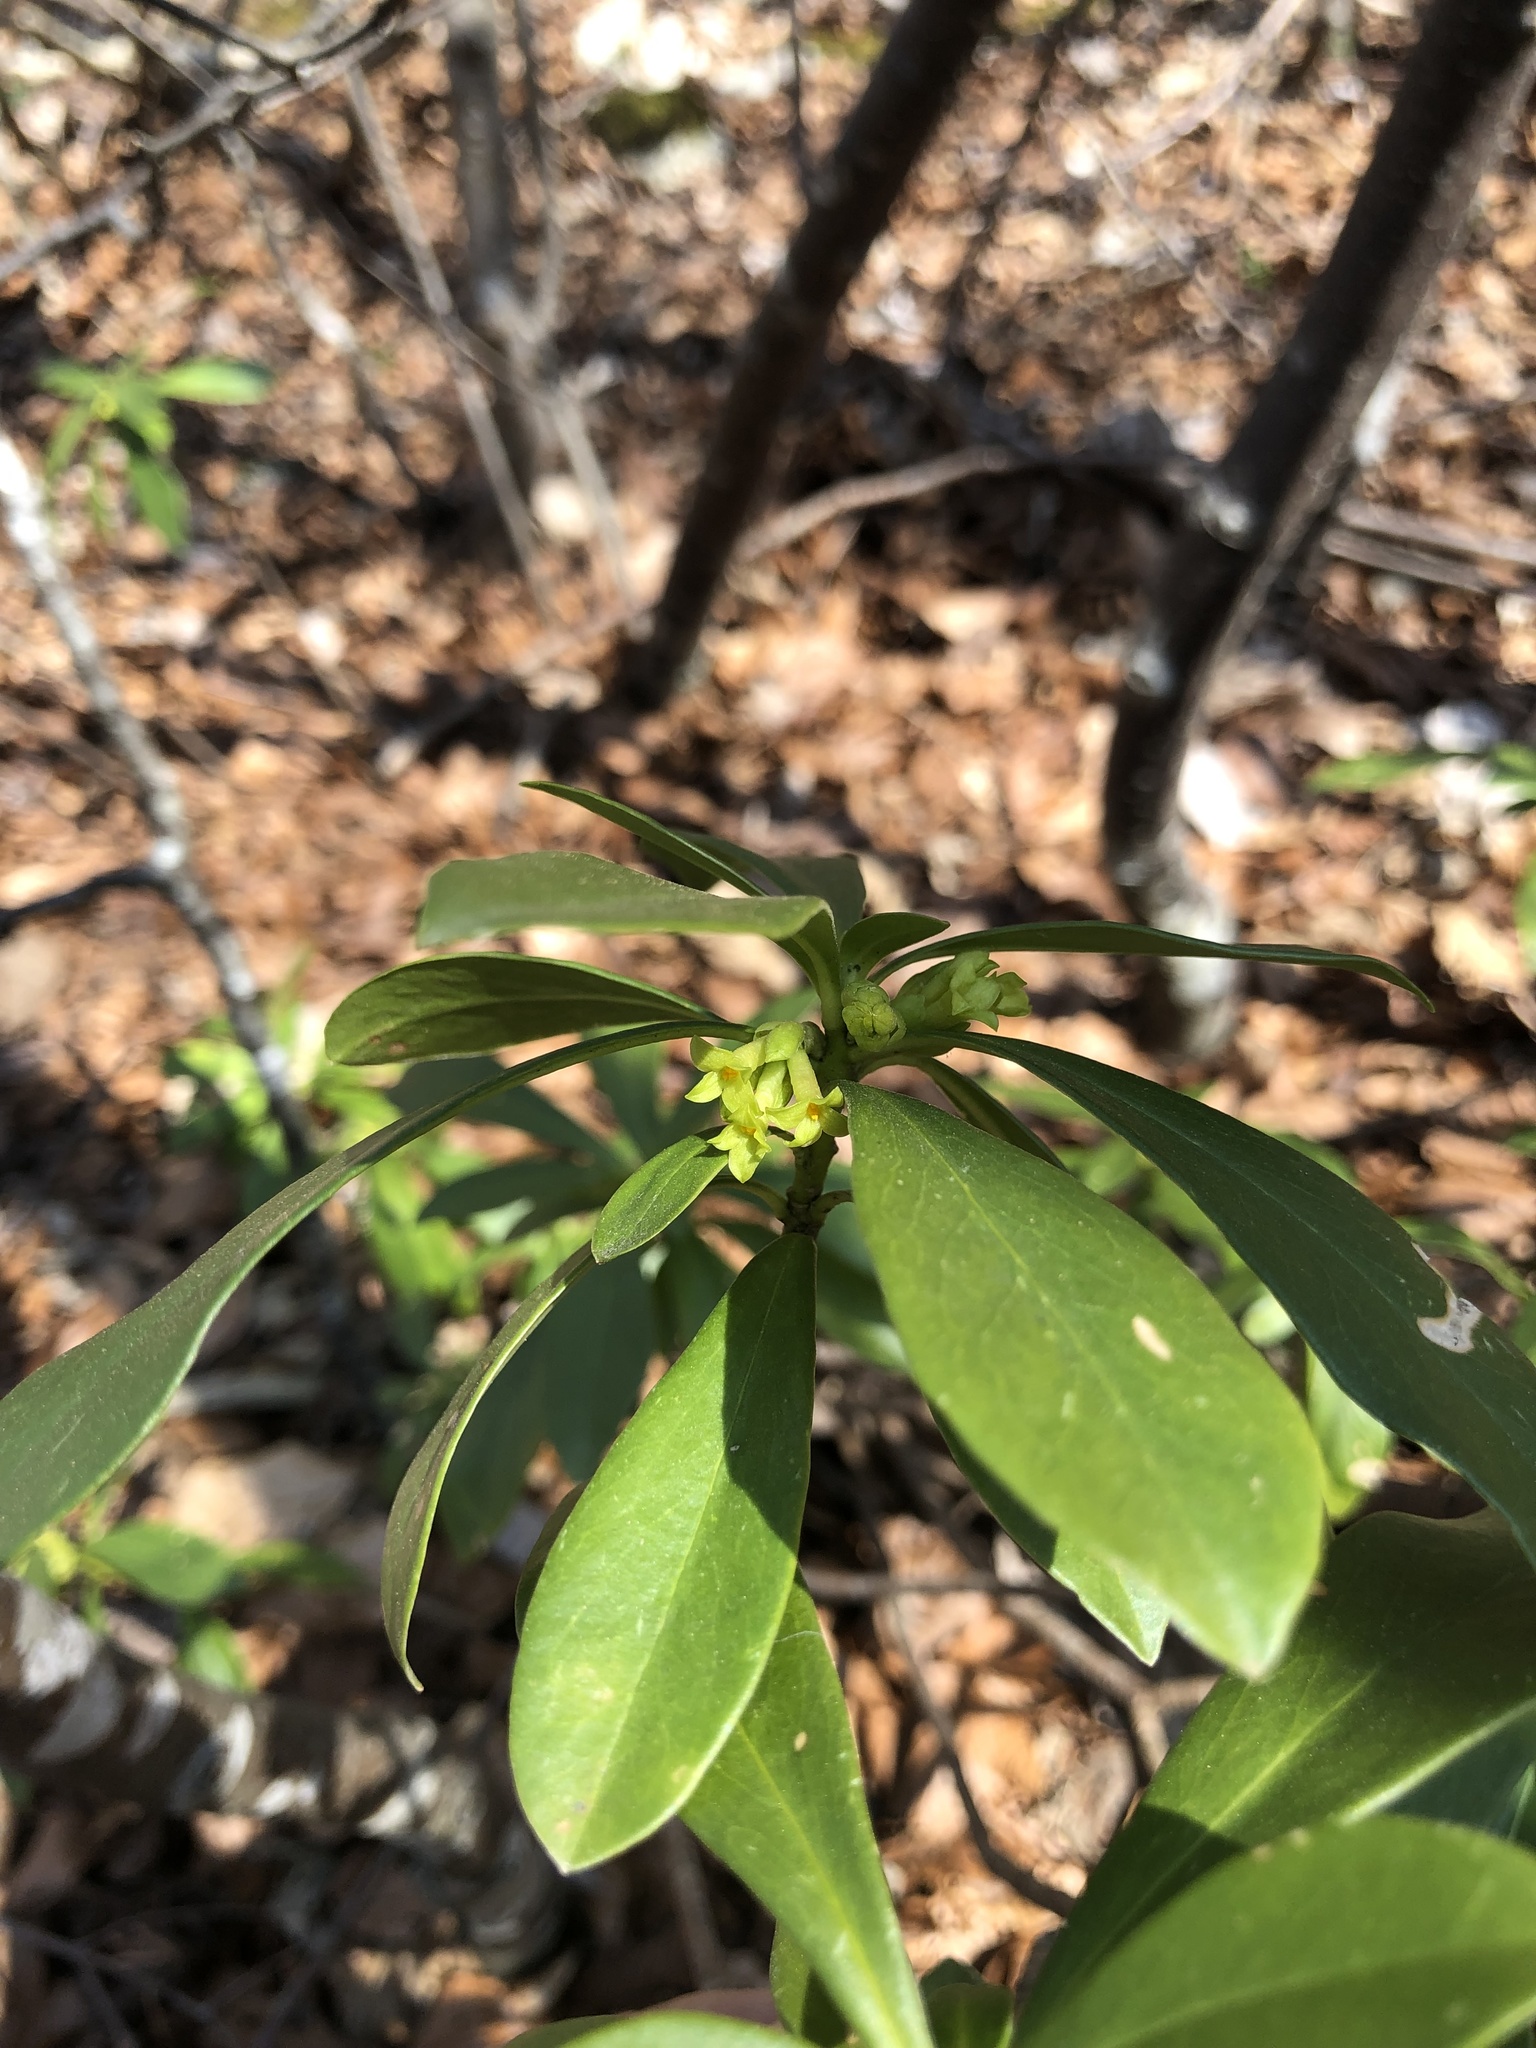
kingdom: Plantae
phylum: Tracheophyta
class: Magnoliopsida
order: Malvales
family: Thymelaeaceae
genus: Daphne
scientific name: Daphne laureola
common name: Spurge-laurel
